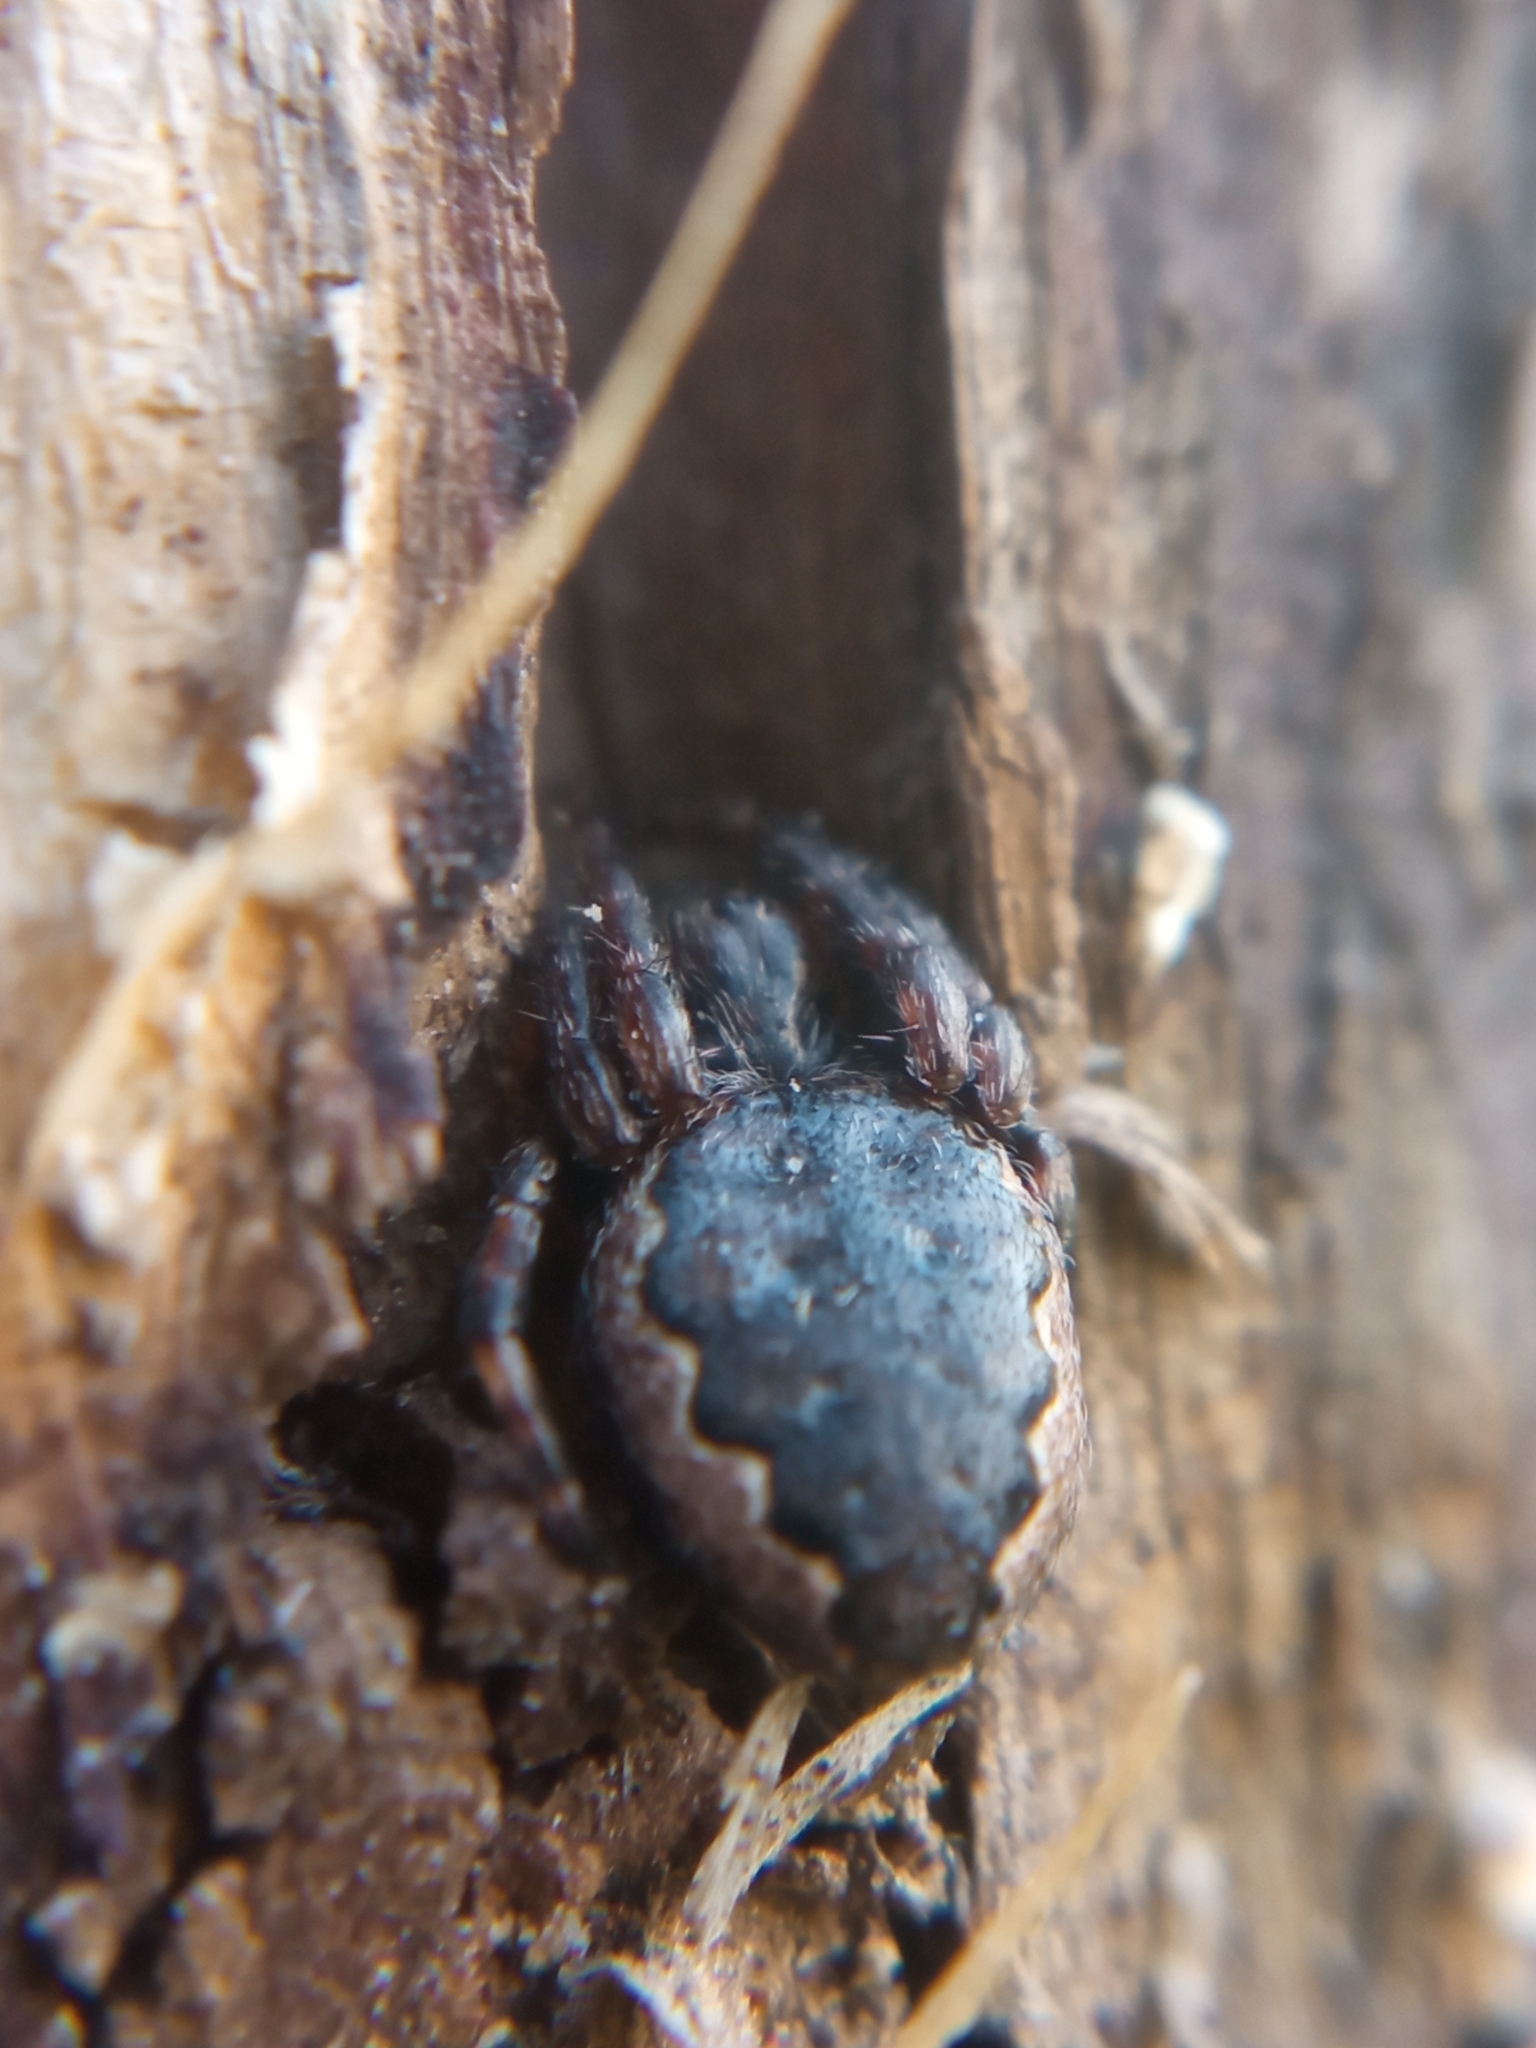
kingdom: Animalia
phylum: Arthropoda
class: Arachnida
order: Araneae
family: Araneidae
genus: Nuctenea
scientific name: Nuctenea umbratica
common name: Toad spider
